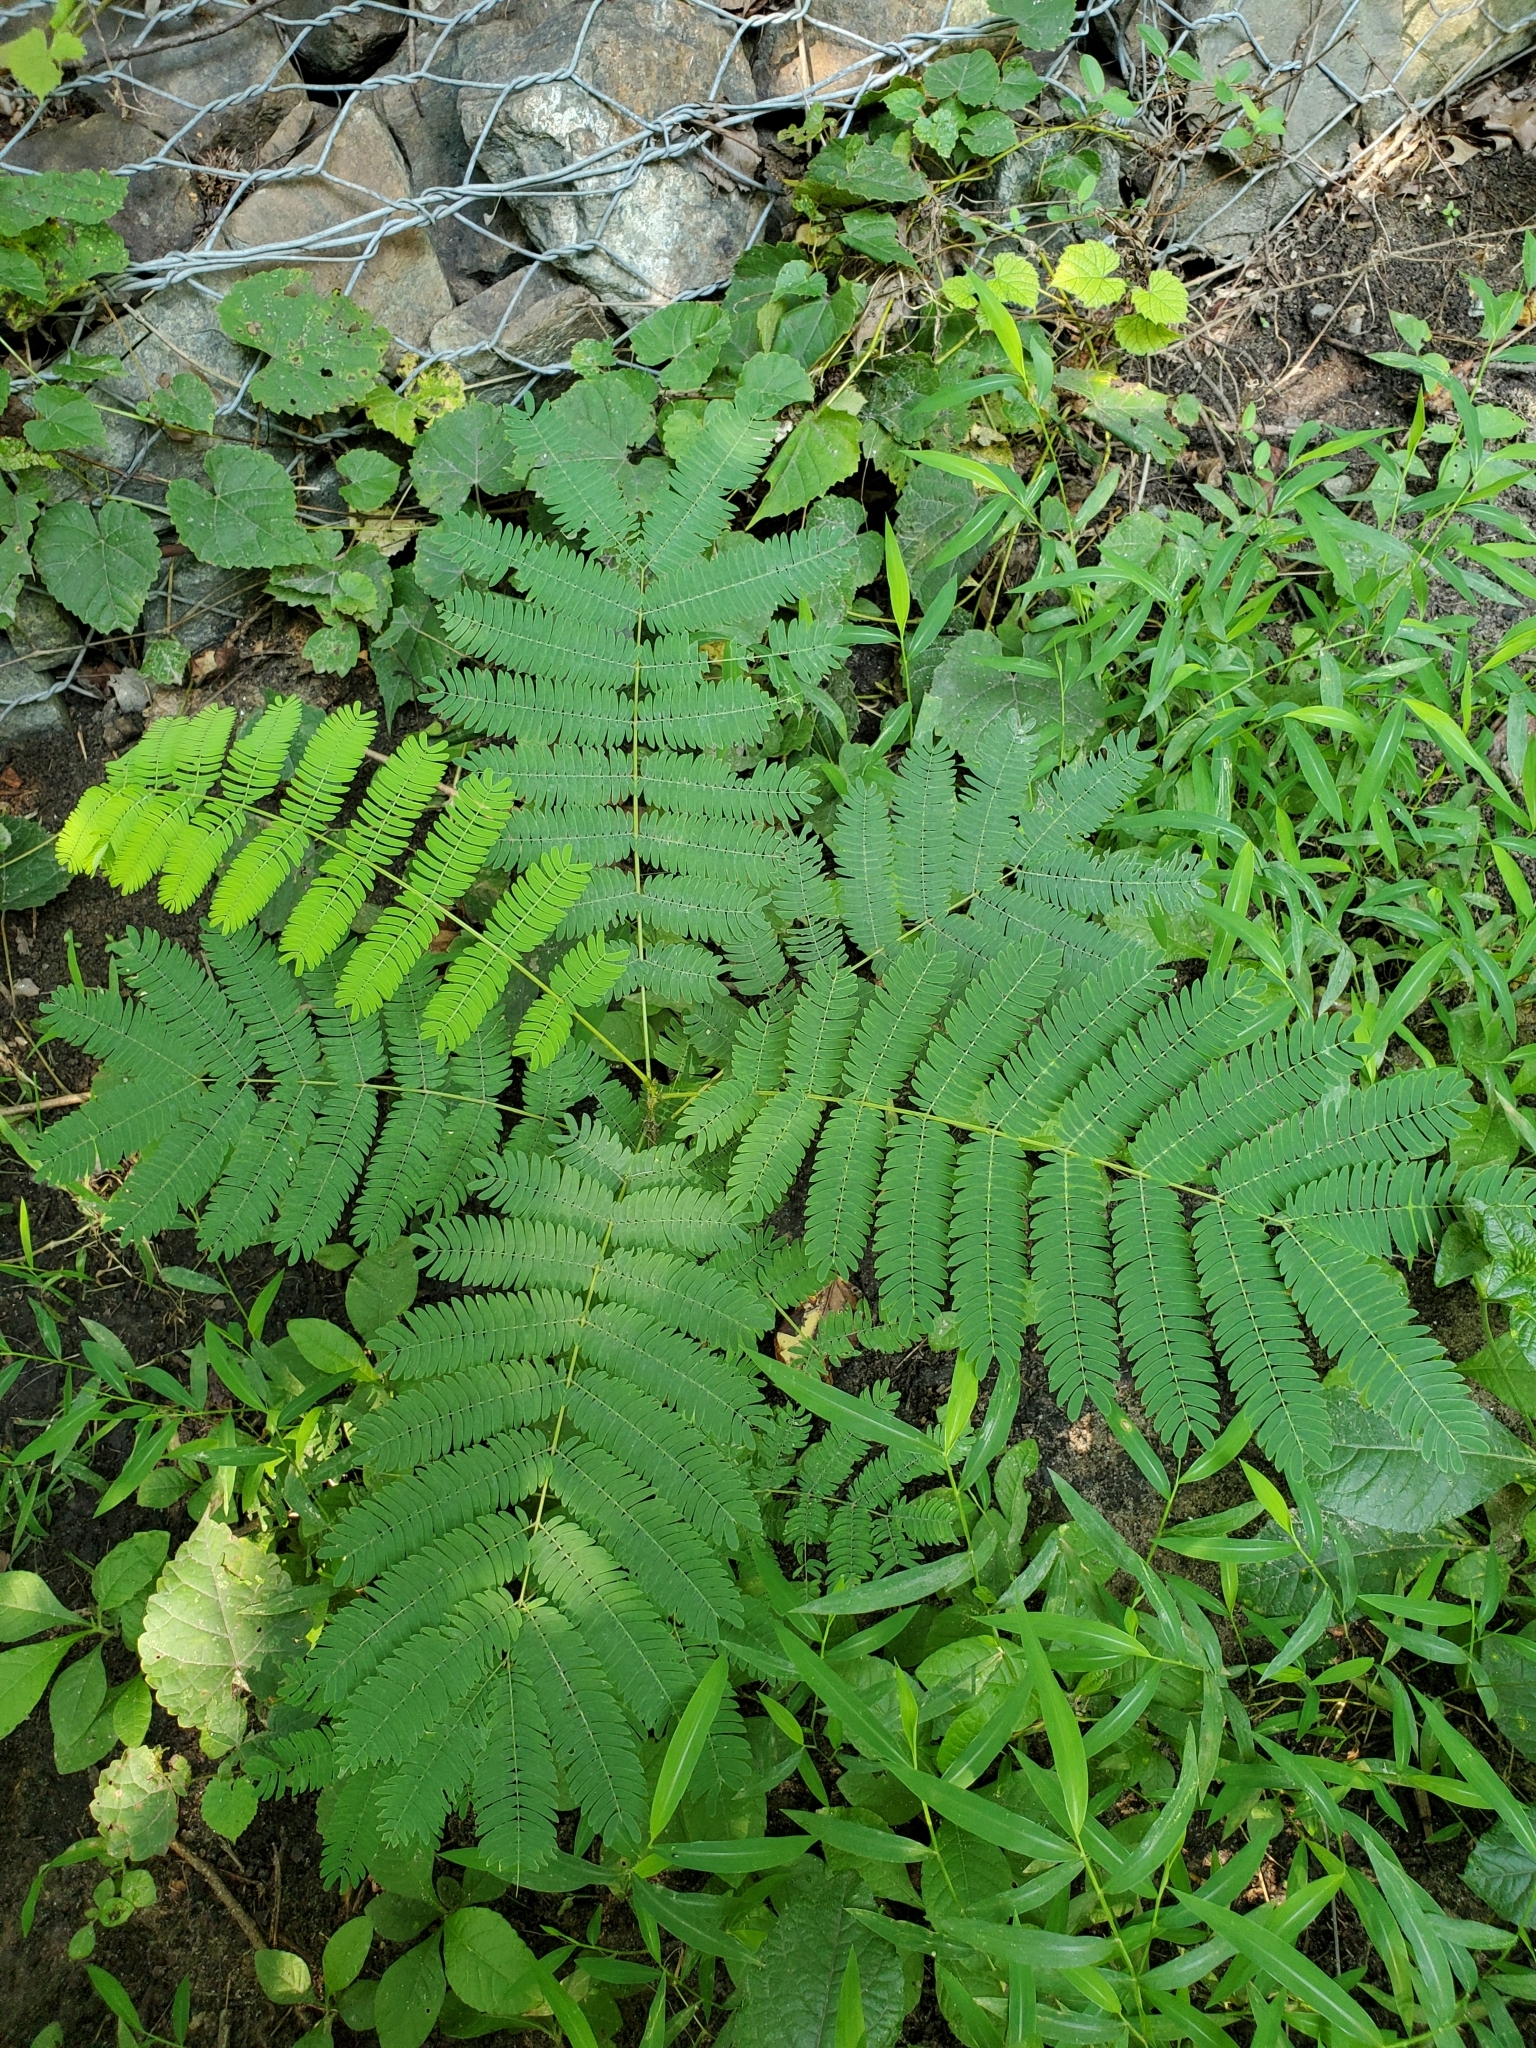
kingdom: Plantae
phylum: Tracheophyta
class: Magnoliopsida
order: Fabales
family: Fabaceae
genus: Albizia
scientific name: Albizia julibrissin
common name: Silktree
